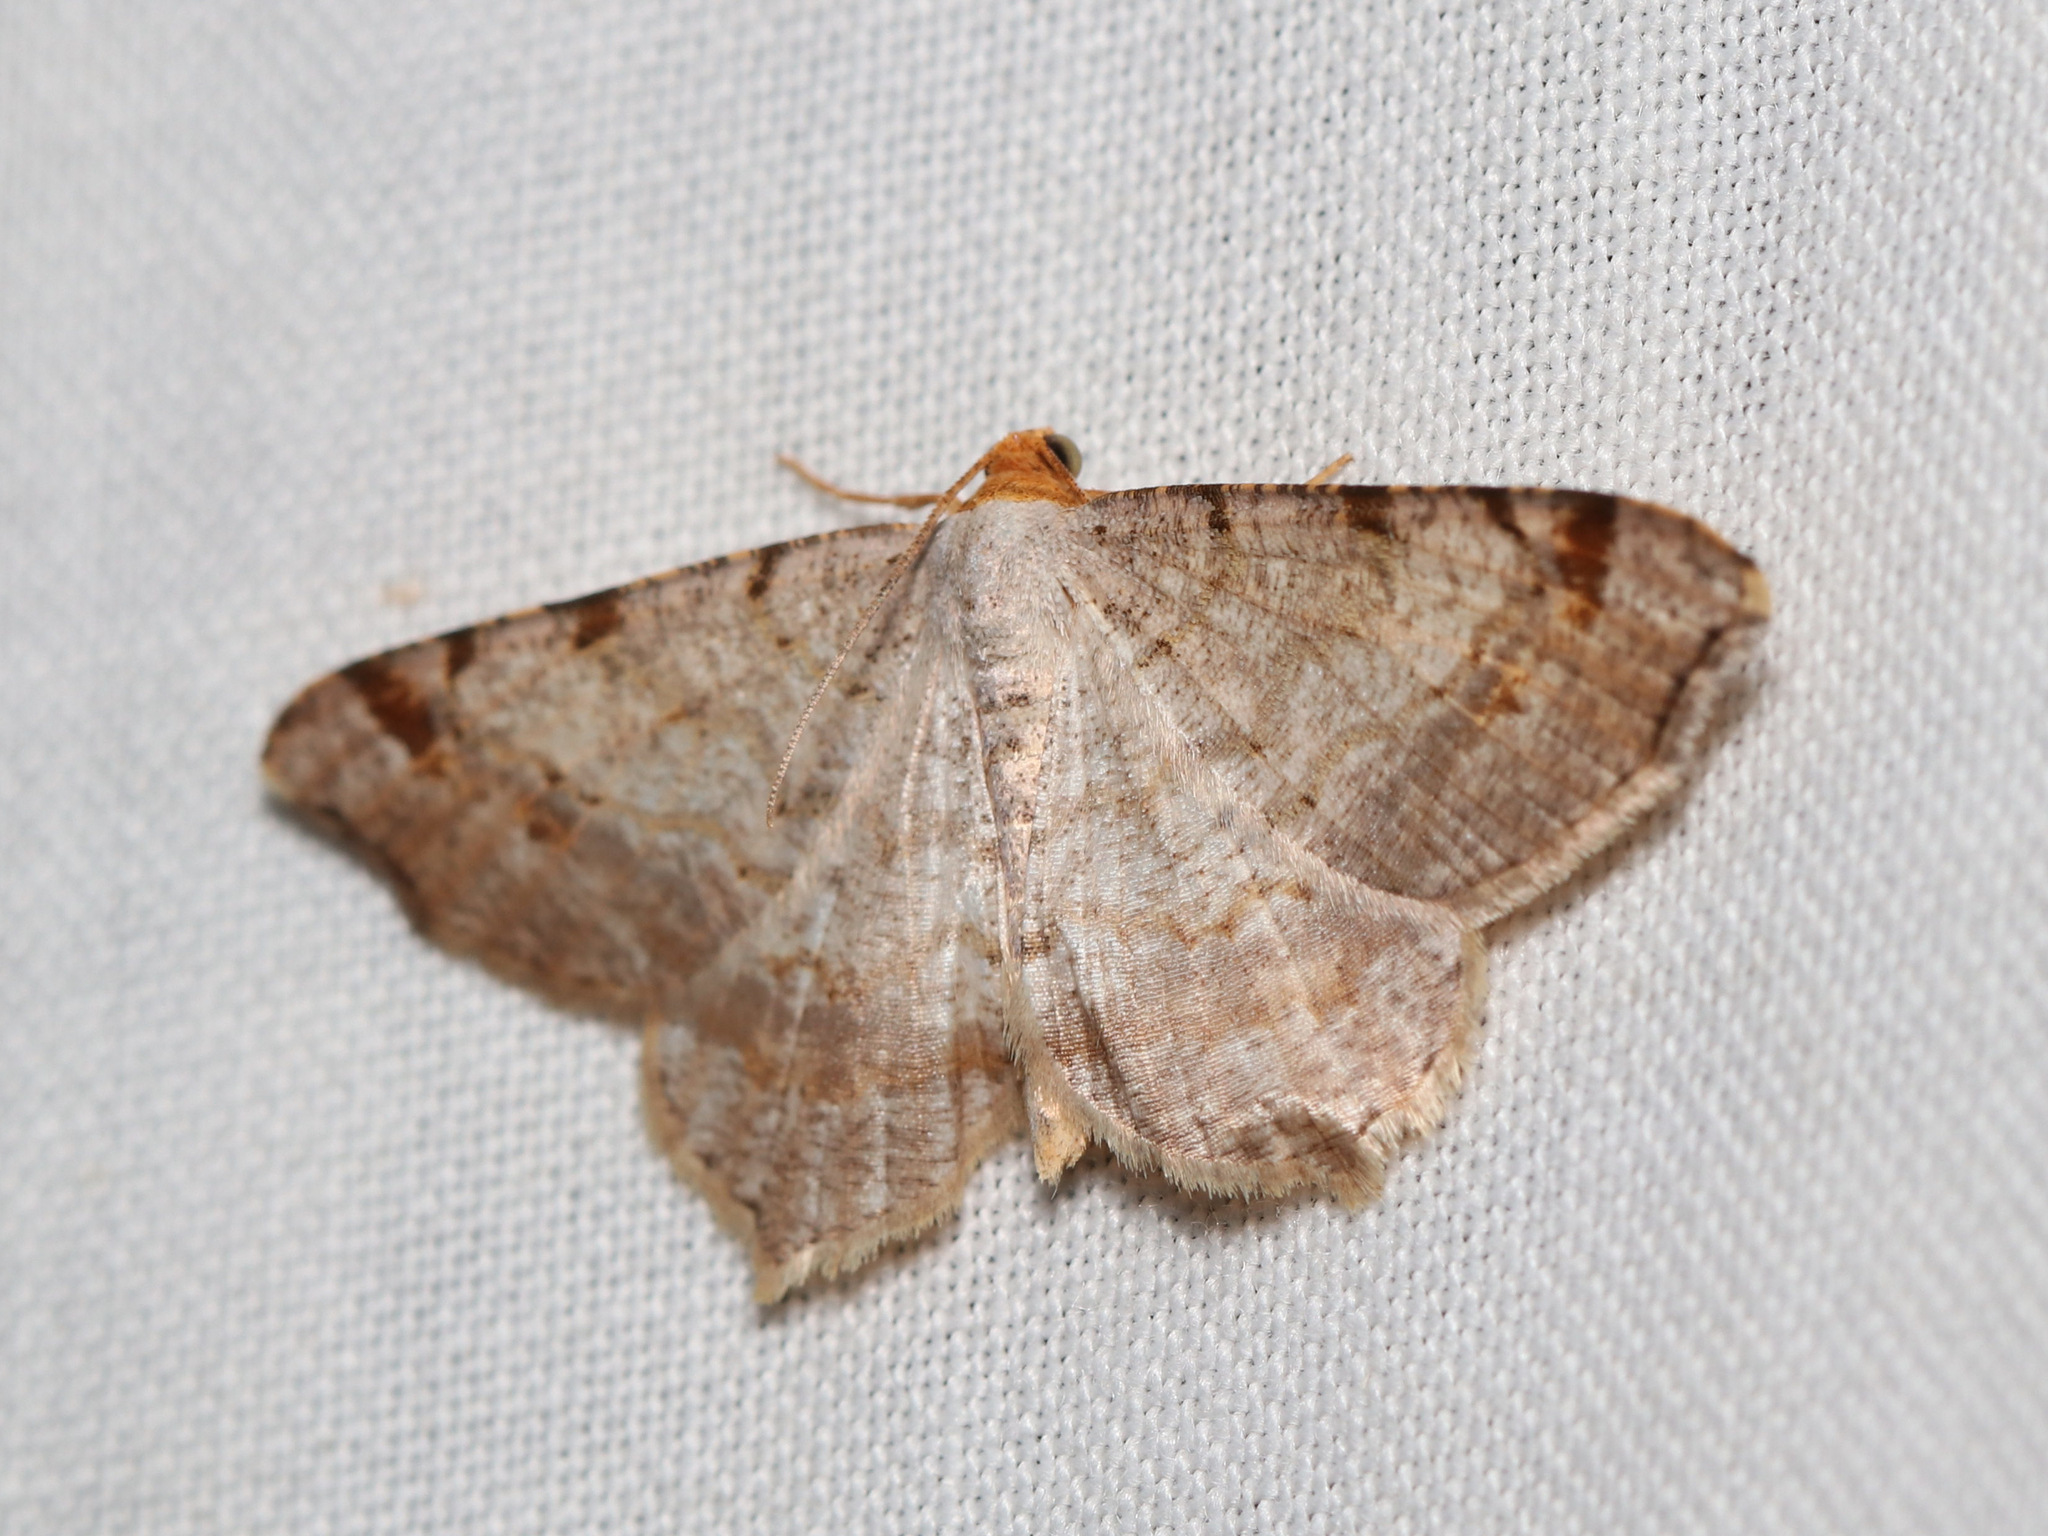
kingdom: Animalia
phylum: Arthropoda
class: Insecta
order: Lepidoptera
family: Geometridae
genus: Macaria
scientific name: Macaria bisignata
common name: Red-headed inchworm
